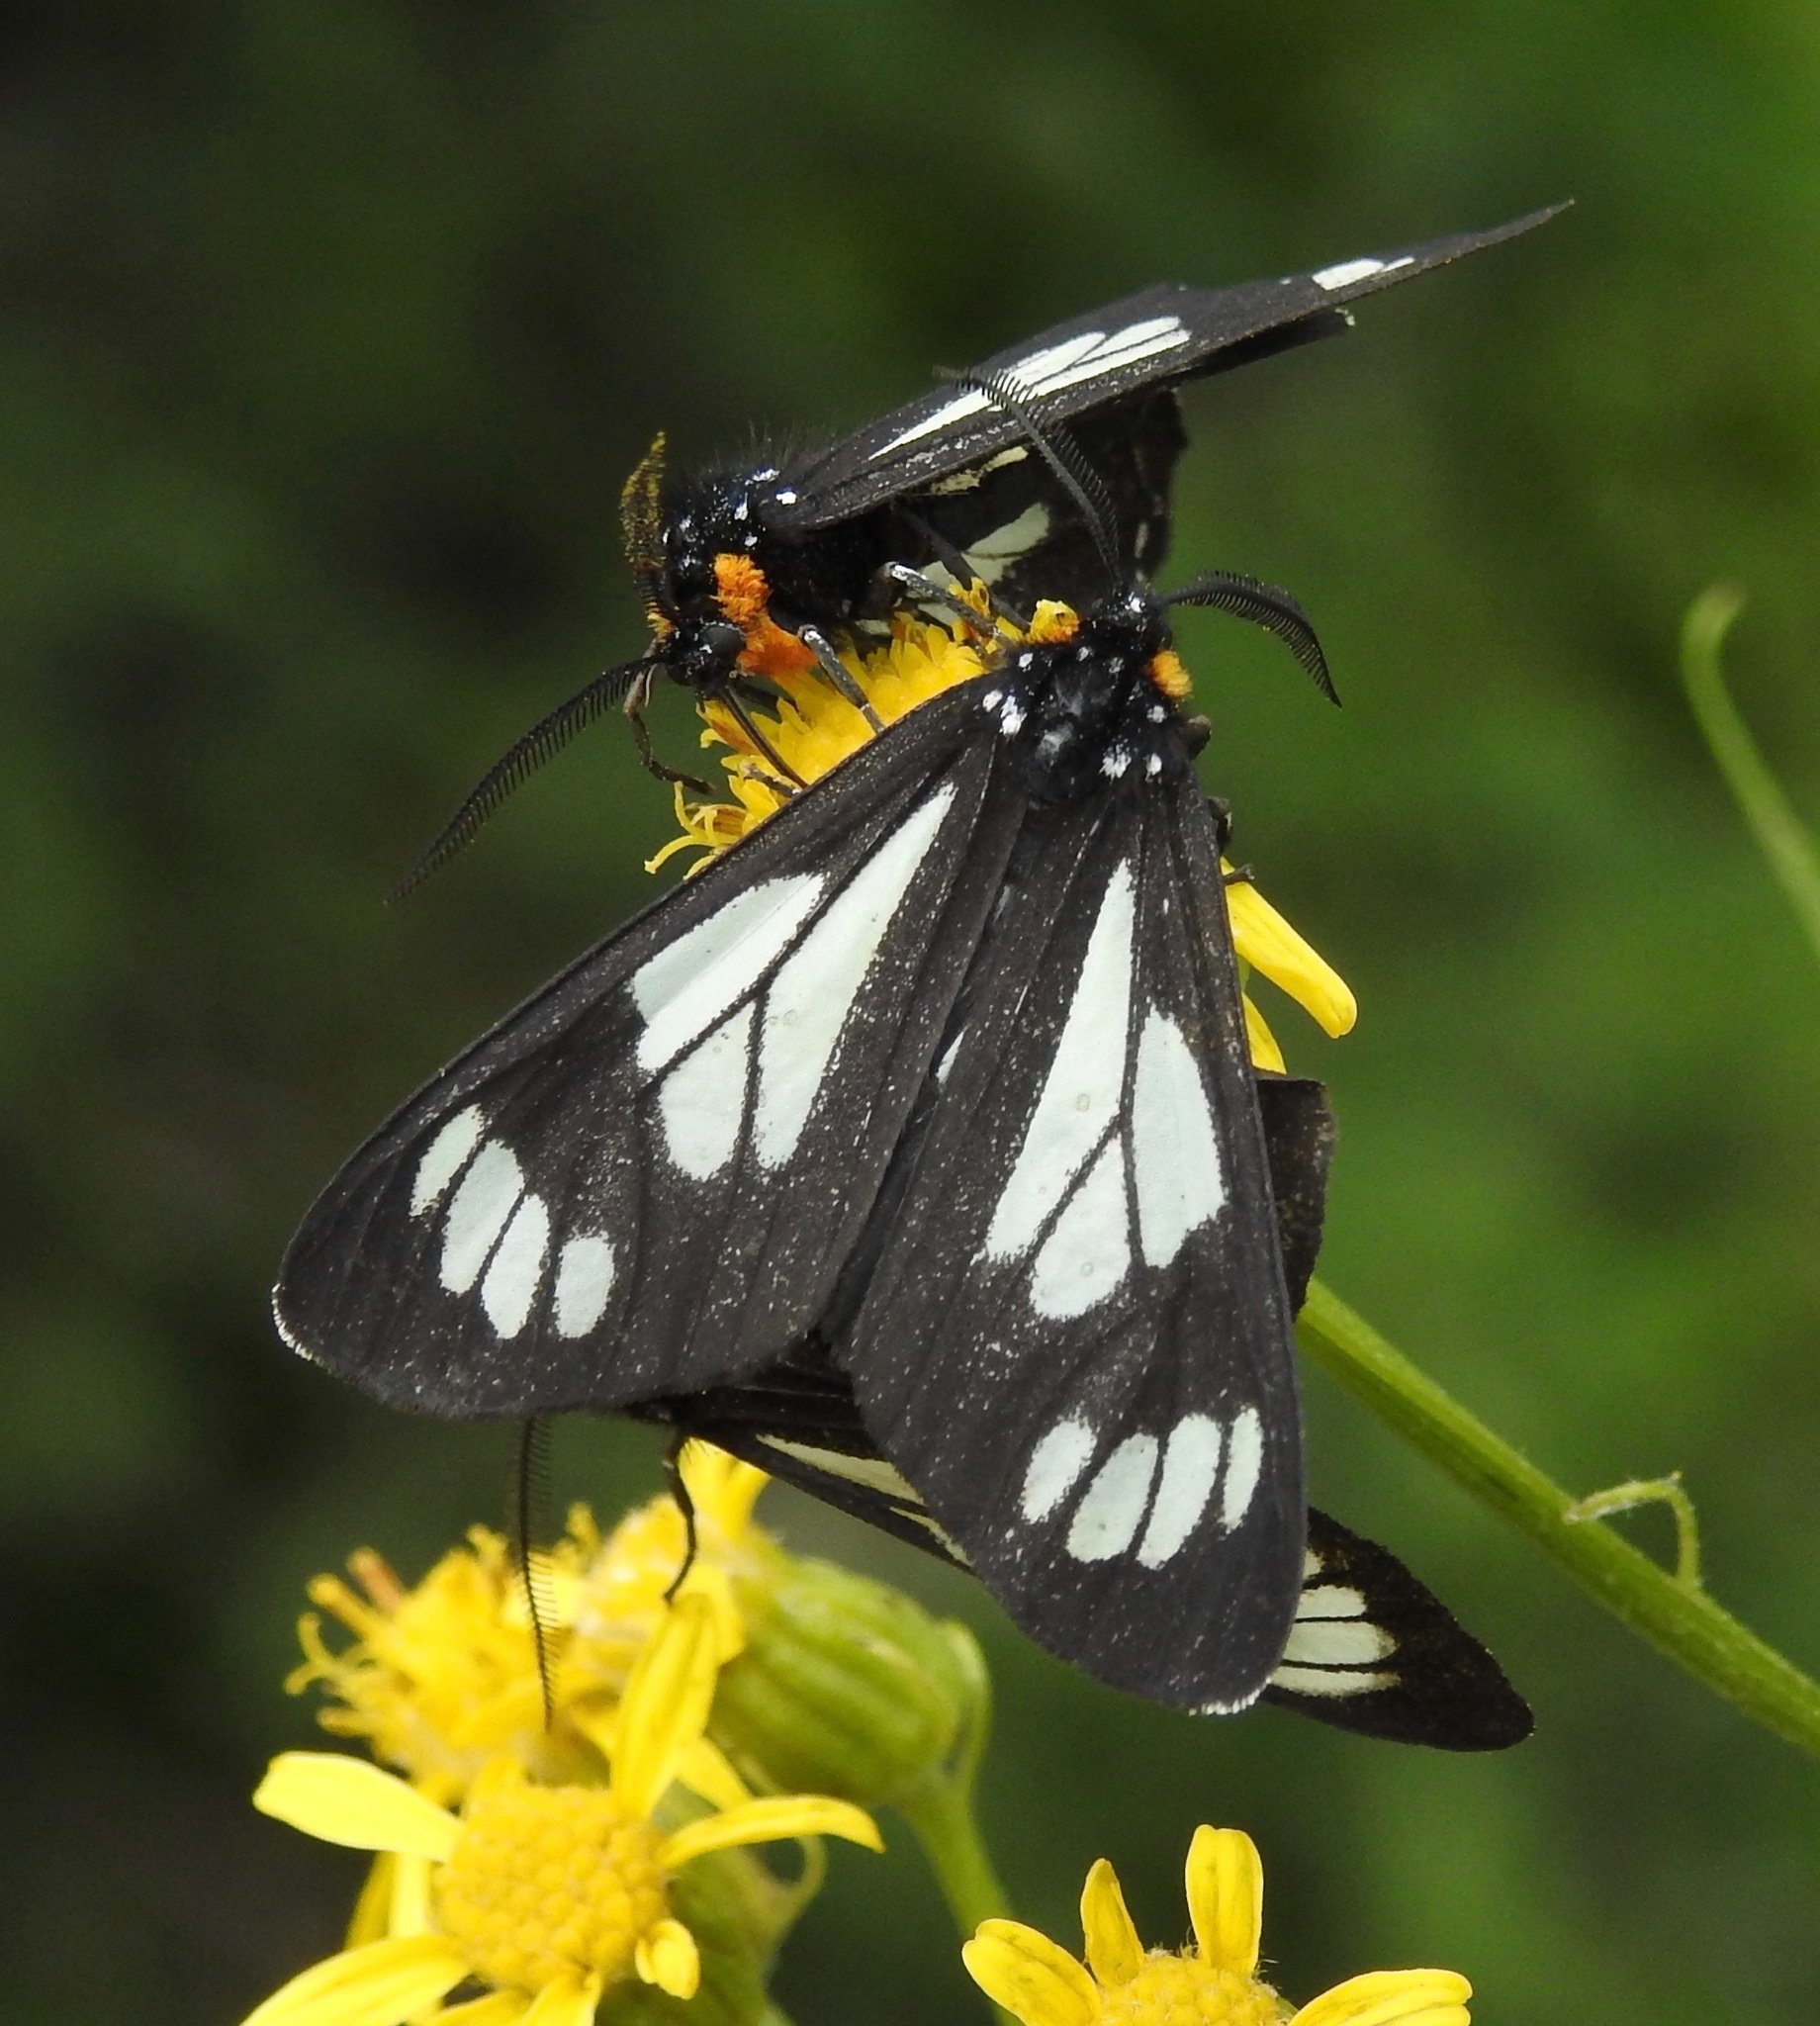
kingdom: Animalia
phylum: Arthropoda
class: Insecta
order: Lepidoptera
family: Erebidae
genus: Gnophaela
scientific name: Gnophaela vermiculata
